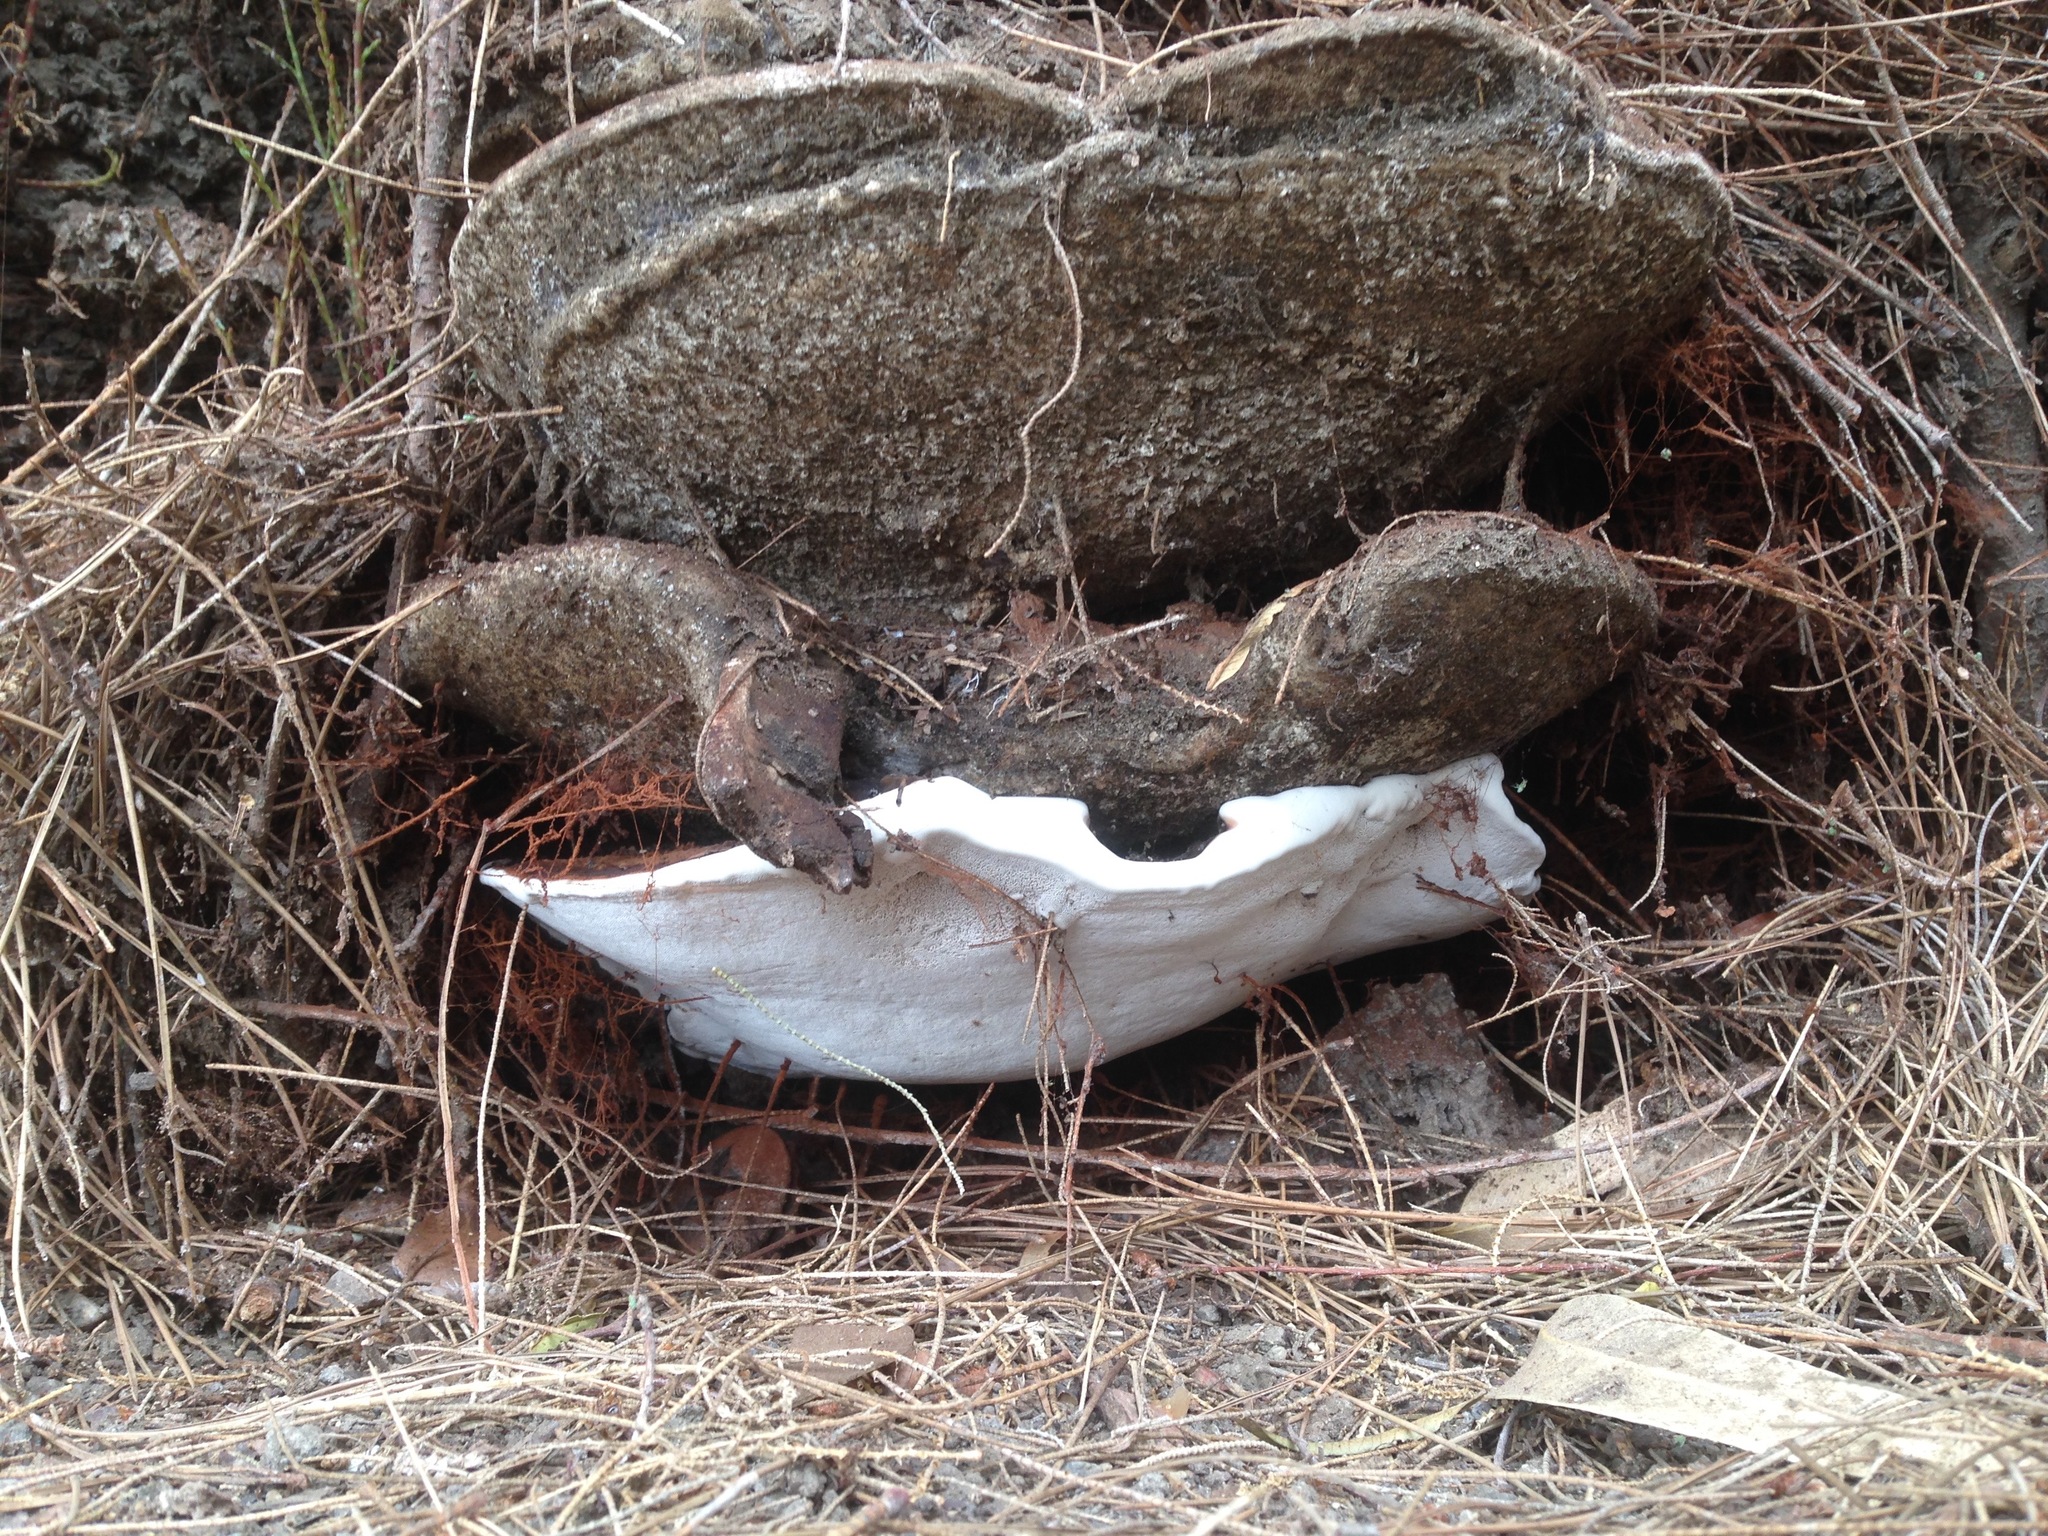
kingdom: Fungi
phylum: Basidiomycota
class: Agaricomycetes
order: Polyporales
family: Polyporaceae
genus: Ganoderma
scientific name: Ganoderma brownii
